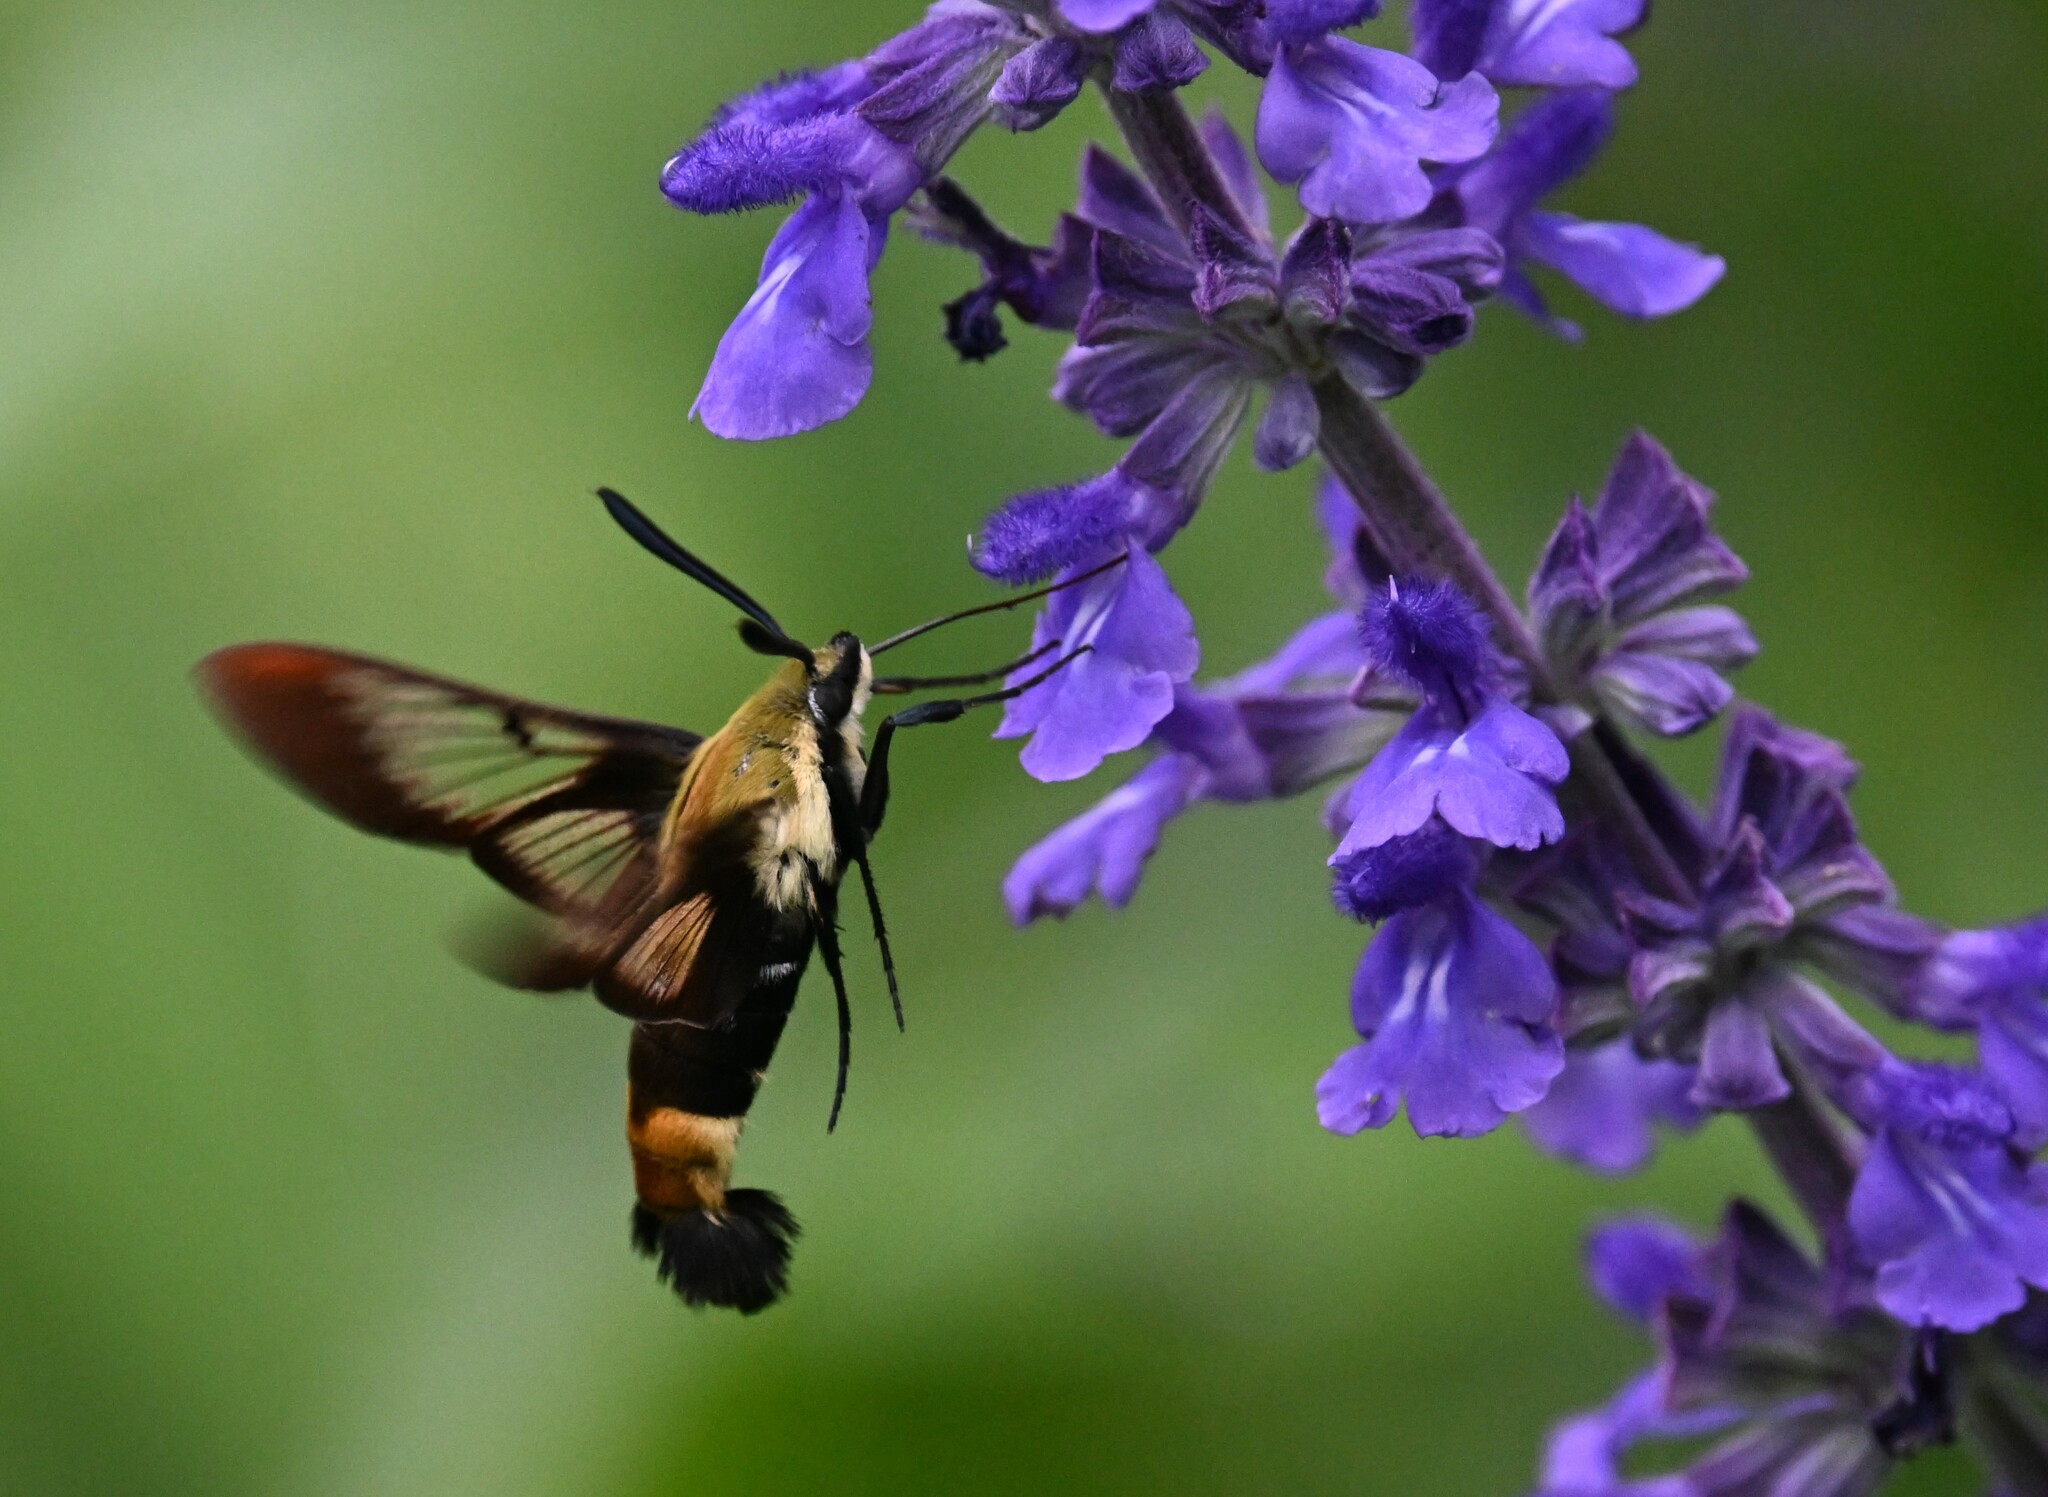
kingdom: Animalia
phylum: Arthropoda
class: Insecta
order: Lepidoptera
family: Sphingidae
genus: Hemaris
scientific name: Hemaris diffinis
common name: Bumblebee moth
